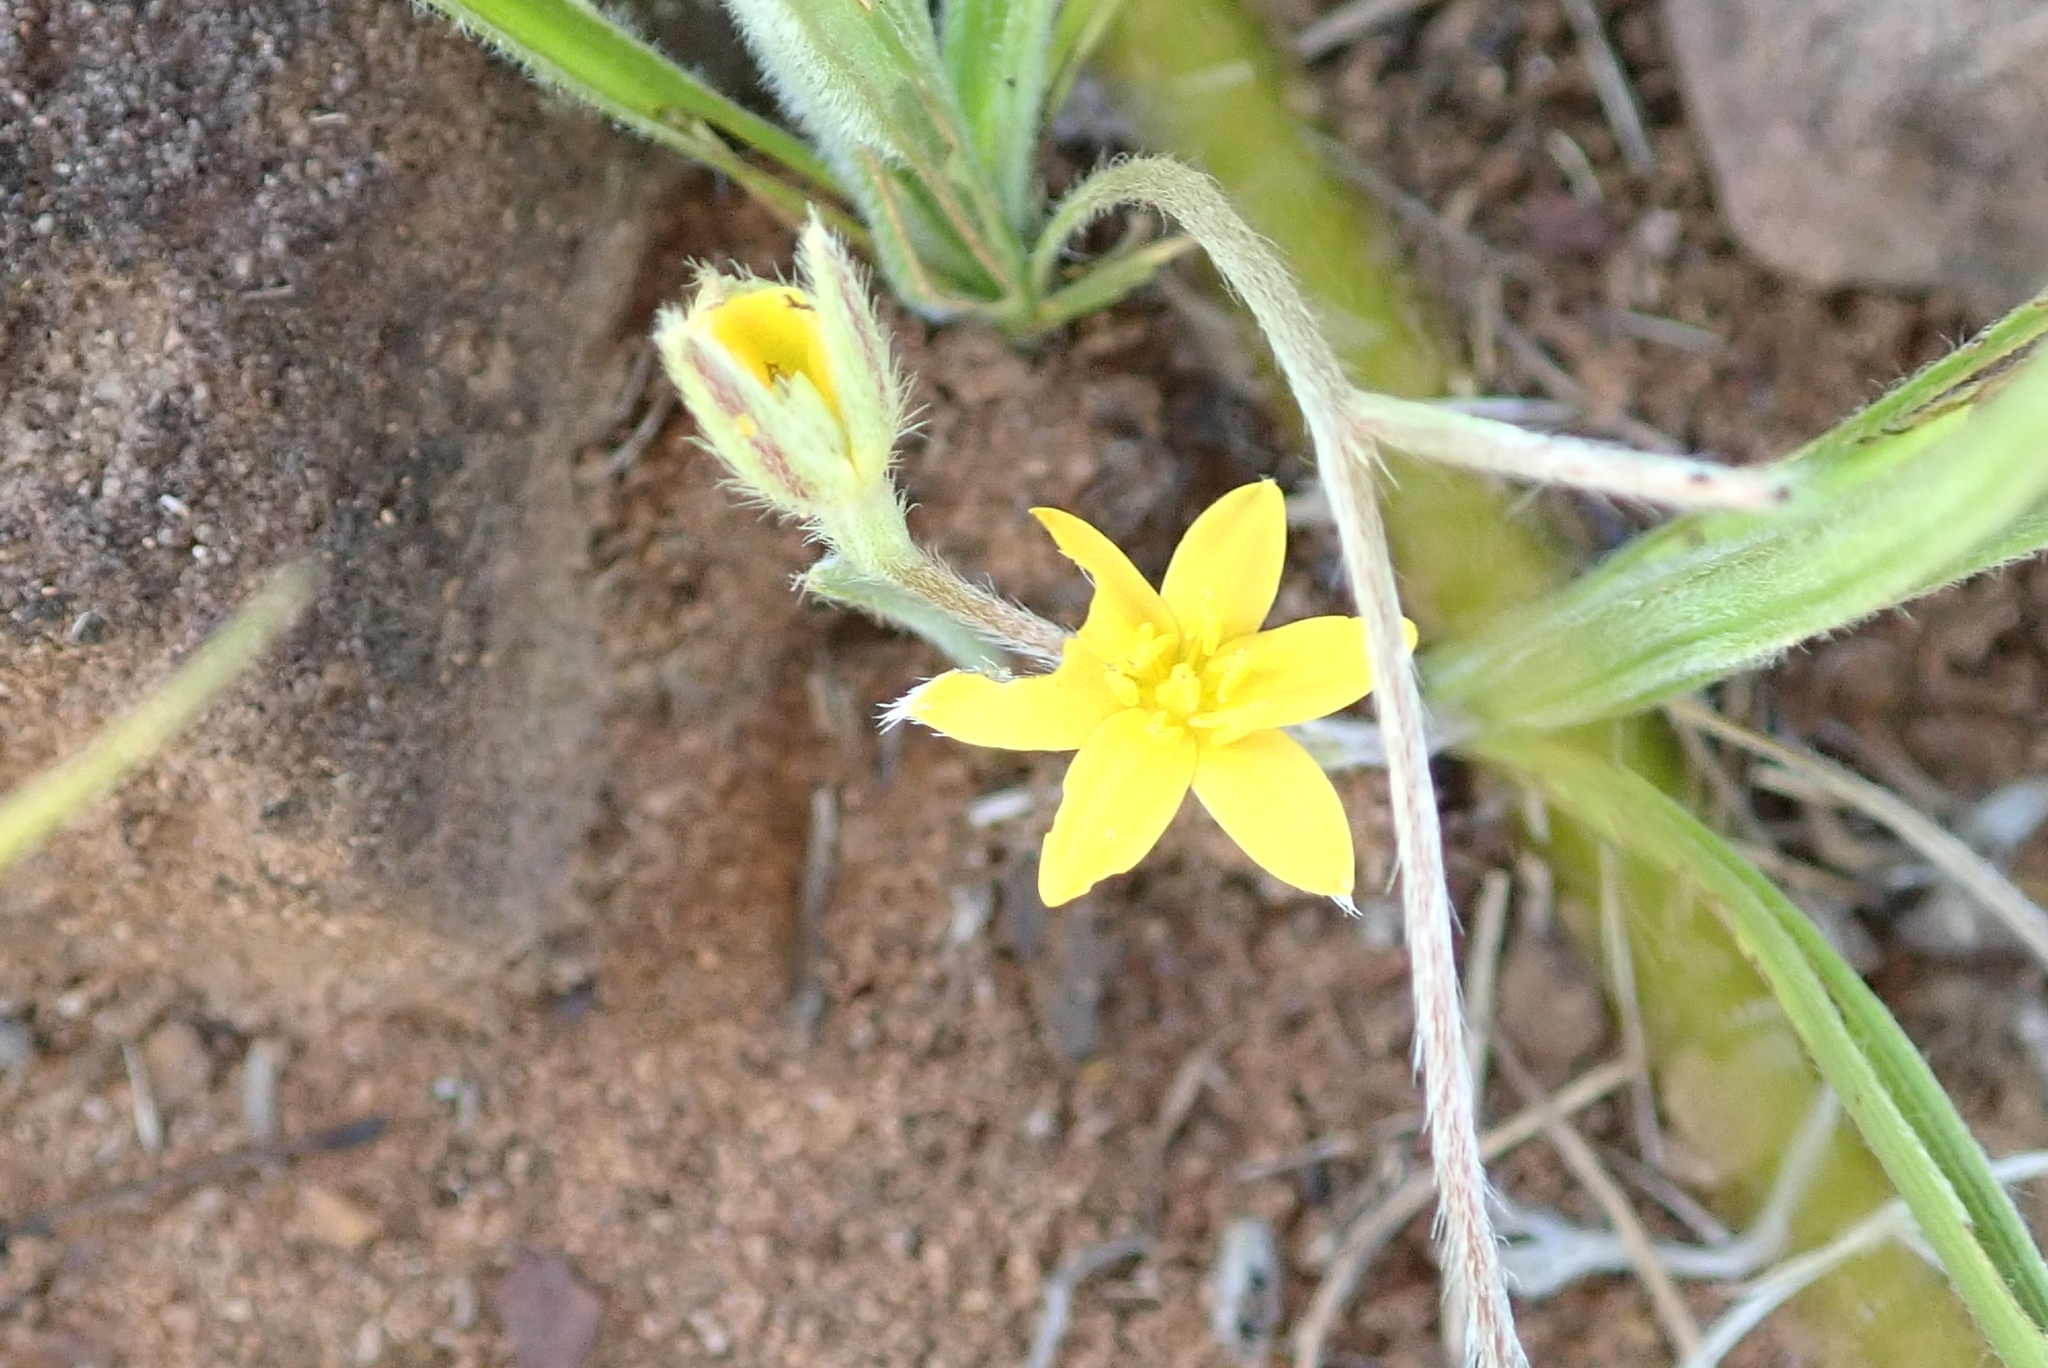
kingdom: Plantae
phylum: Tracheophyta
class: Liliopsida
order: Asparagales
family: Hypoxidaceae
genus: Hypoxis
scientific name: Hypoxis angustifolia
